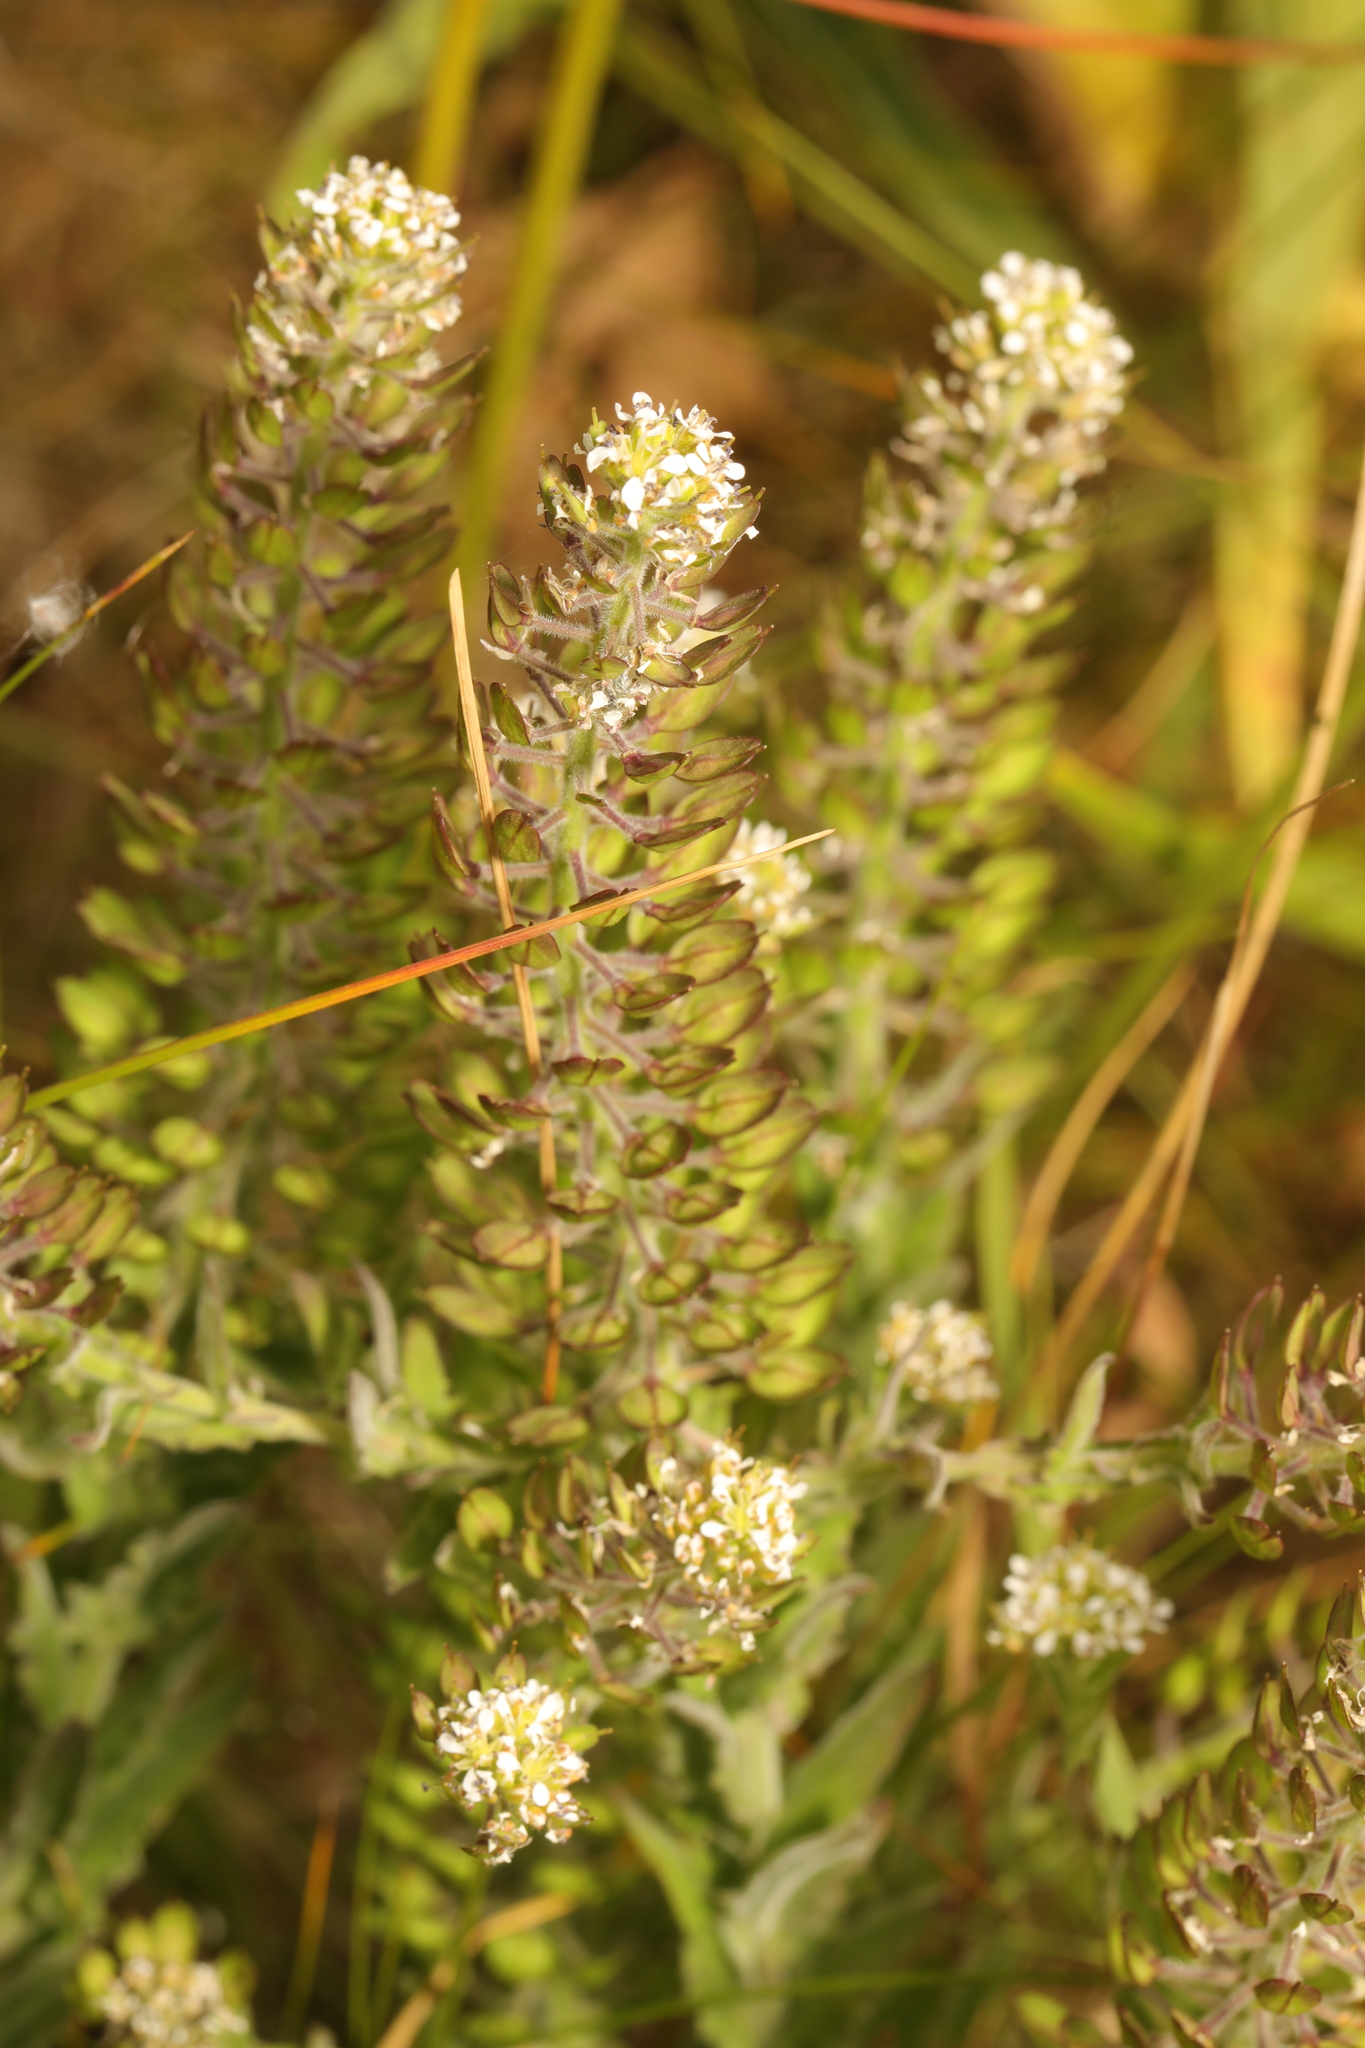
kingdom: Plantae
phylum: Tracheophyta
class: Magnoliopsida
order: Brassicales
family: Brassicaceae
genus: Lepidium
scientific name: Lepidium heterophyllum
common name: Smith's pepperwort
